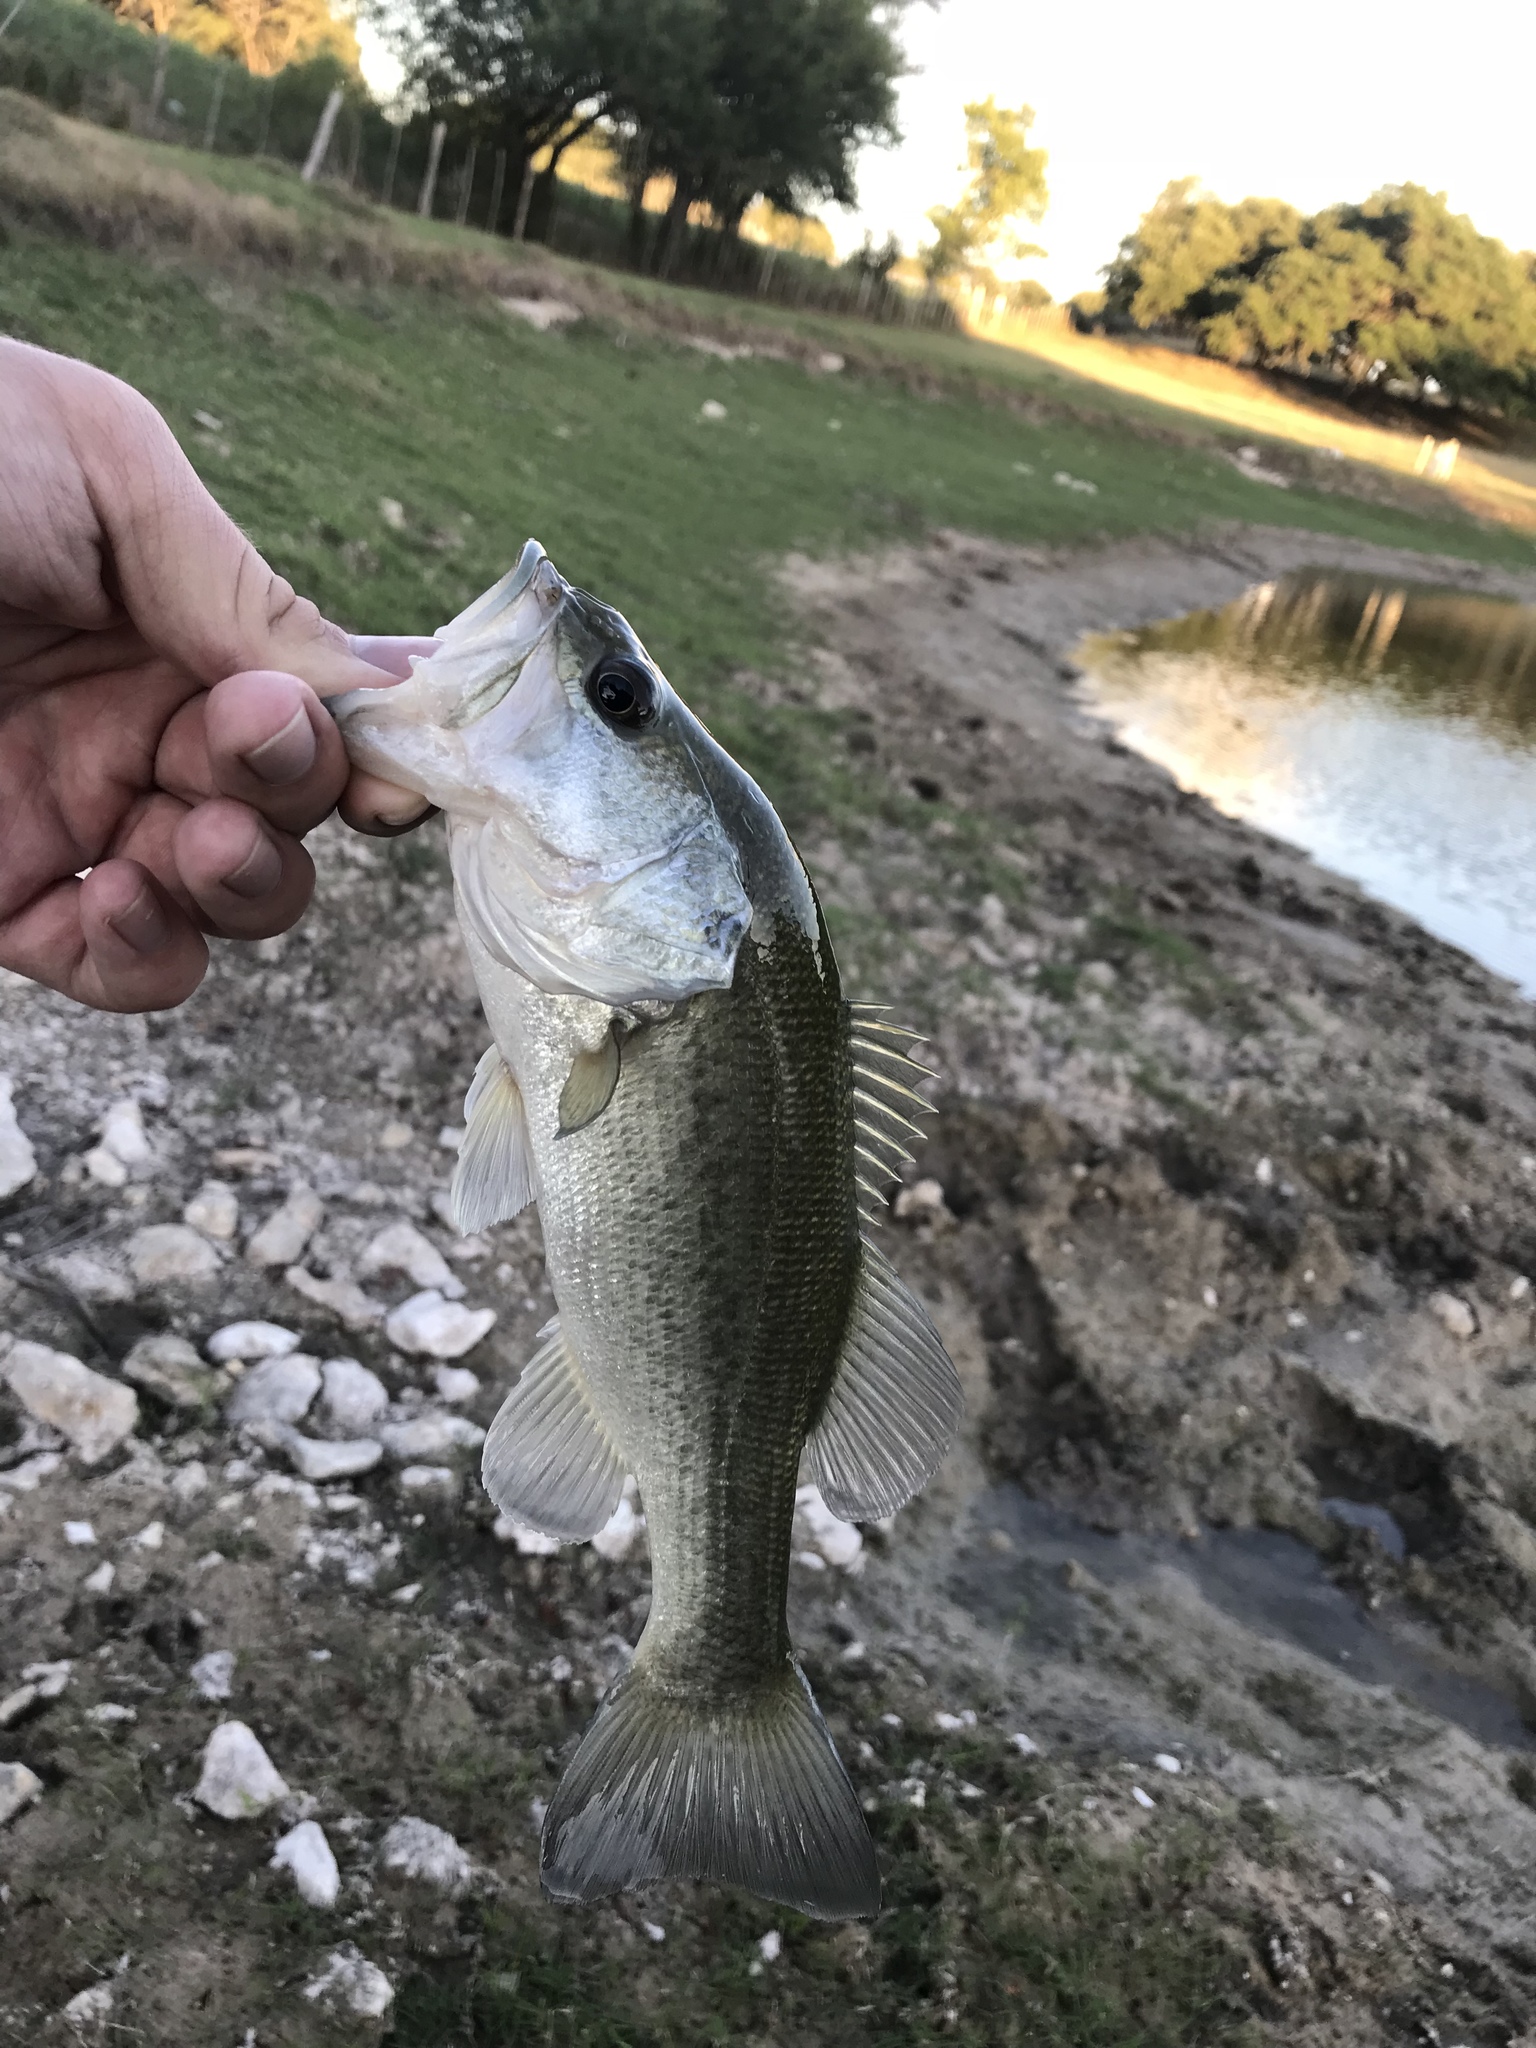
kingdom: Animalia
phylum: Chordata
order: Perciformes
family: Centrarchidae
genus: Micropterus
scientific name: Micropterus
